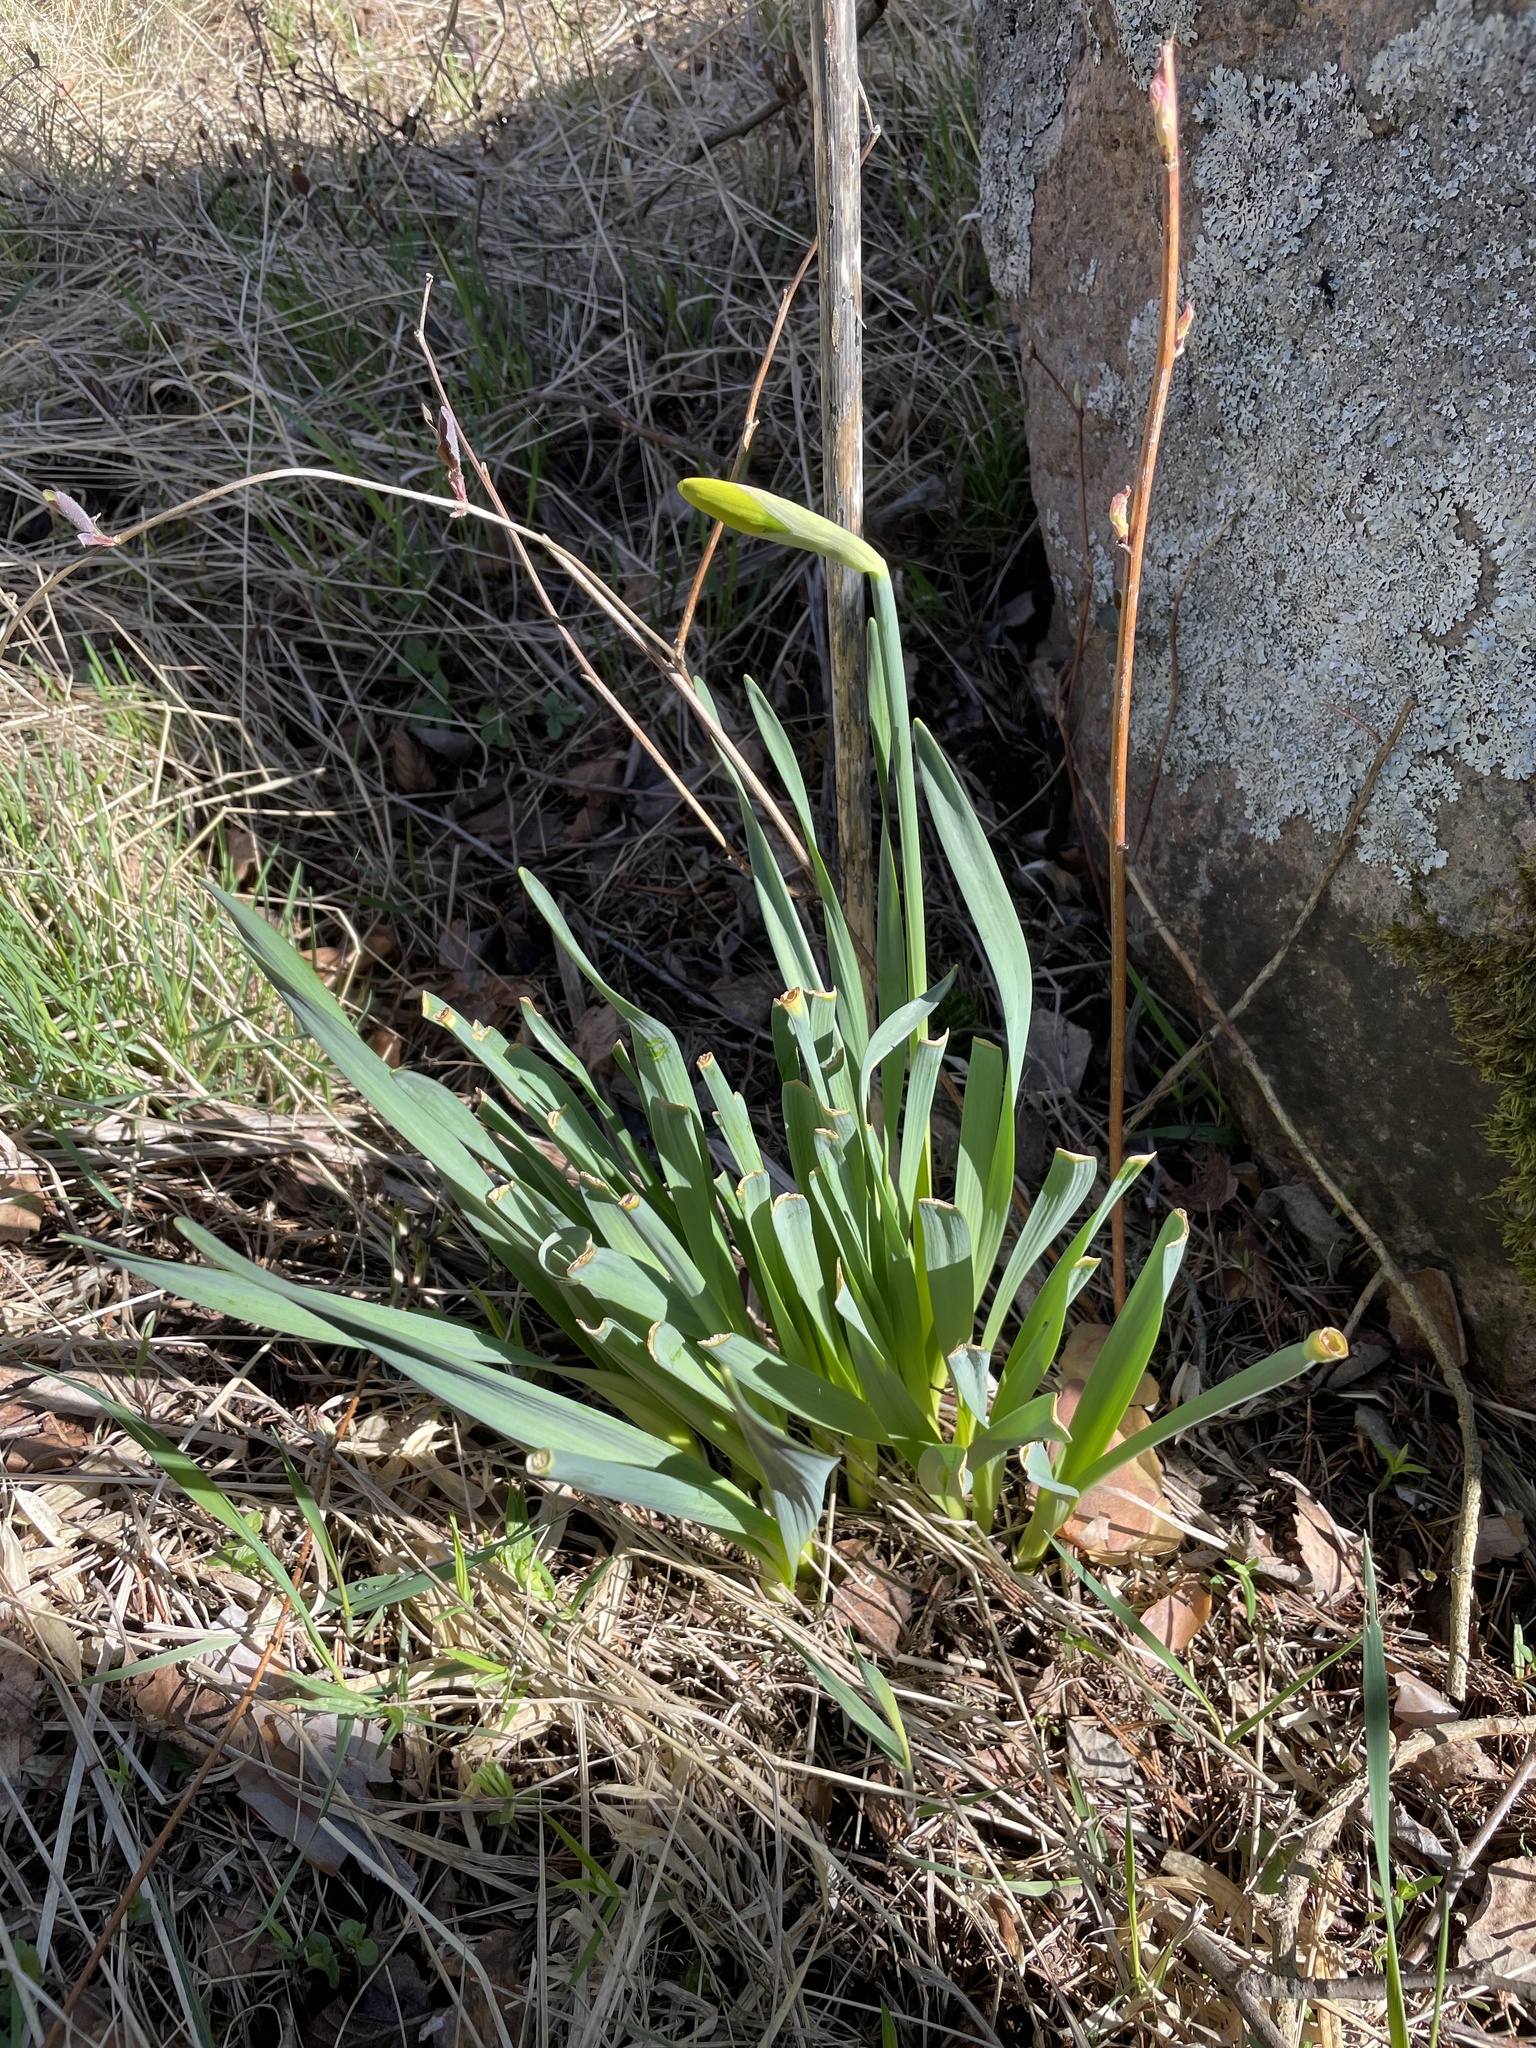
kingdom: Plantae
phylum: Tracheophyta
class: Liliopsida
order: Asparagales
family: Amaryllidaceae
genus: Narcissus
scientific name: Narcissus pseudonarcissus
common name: Daffodil
